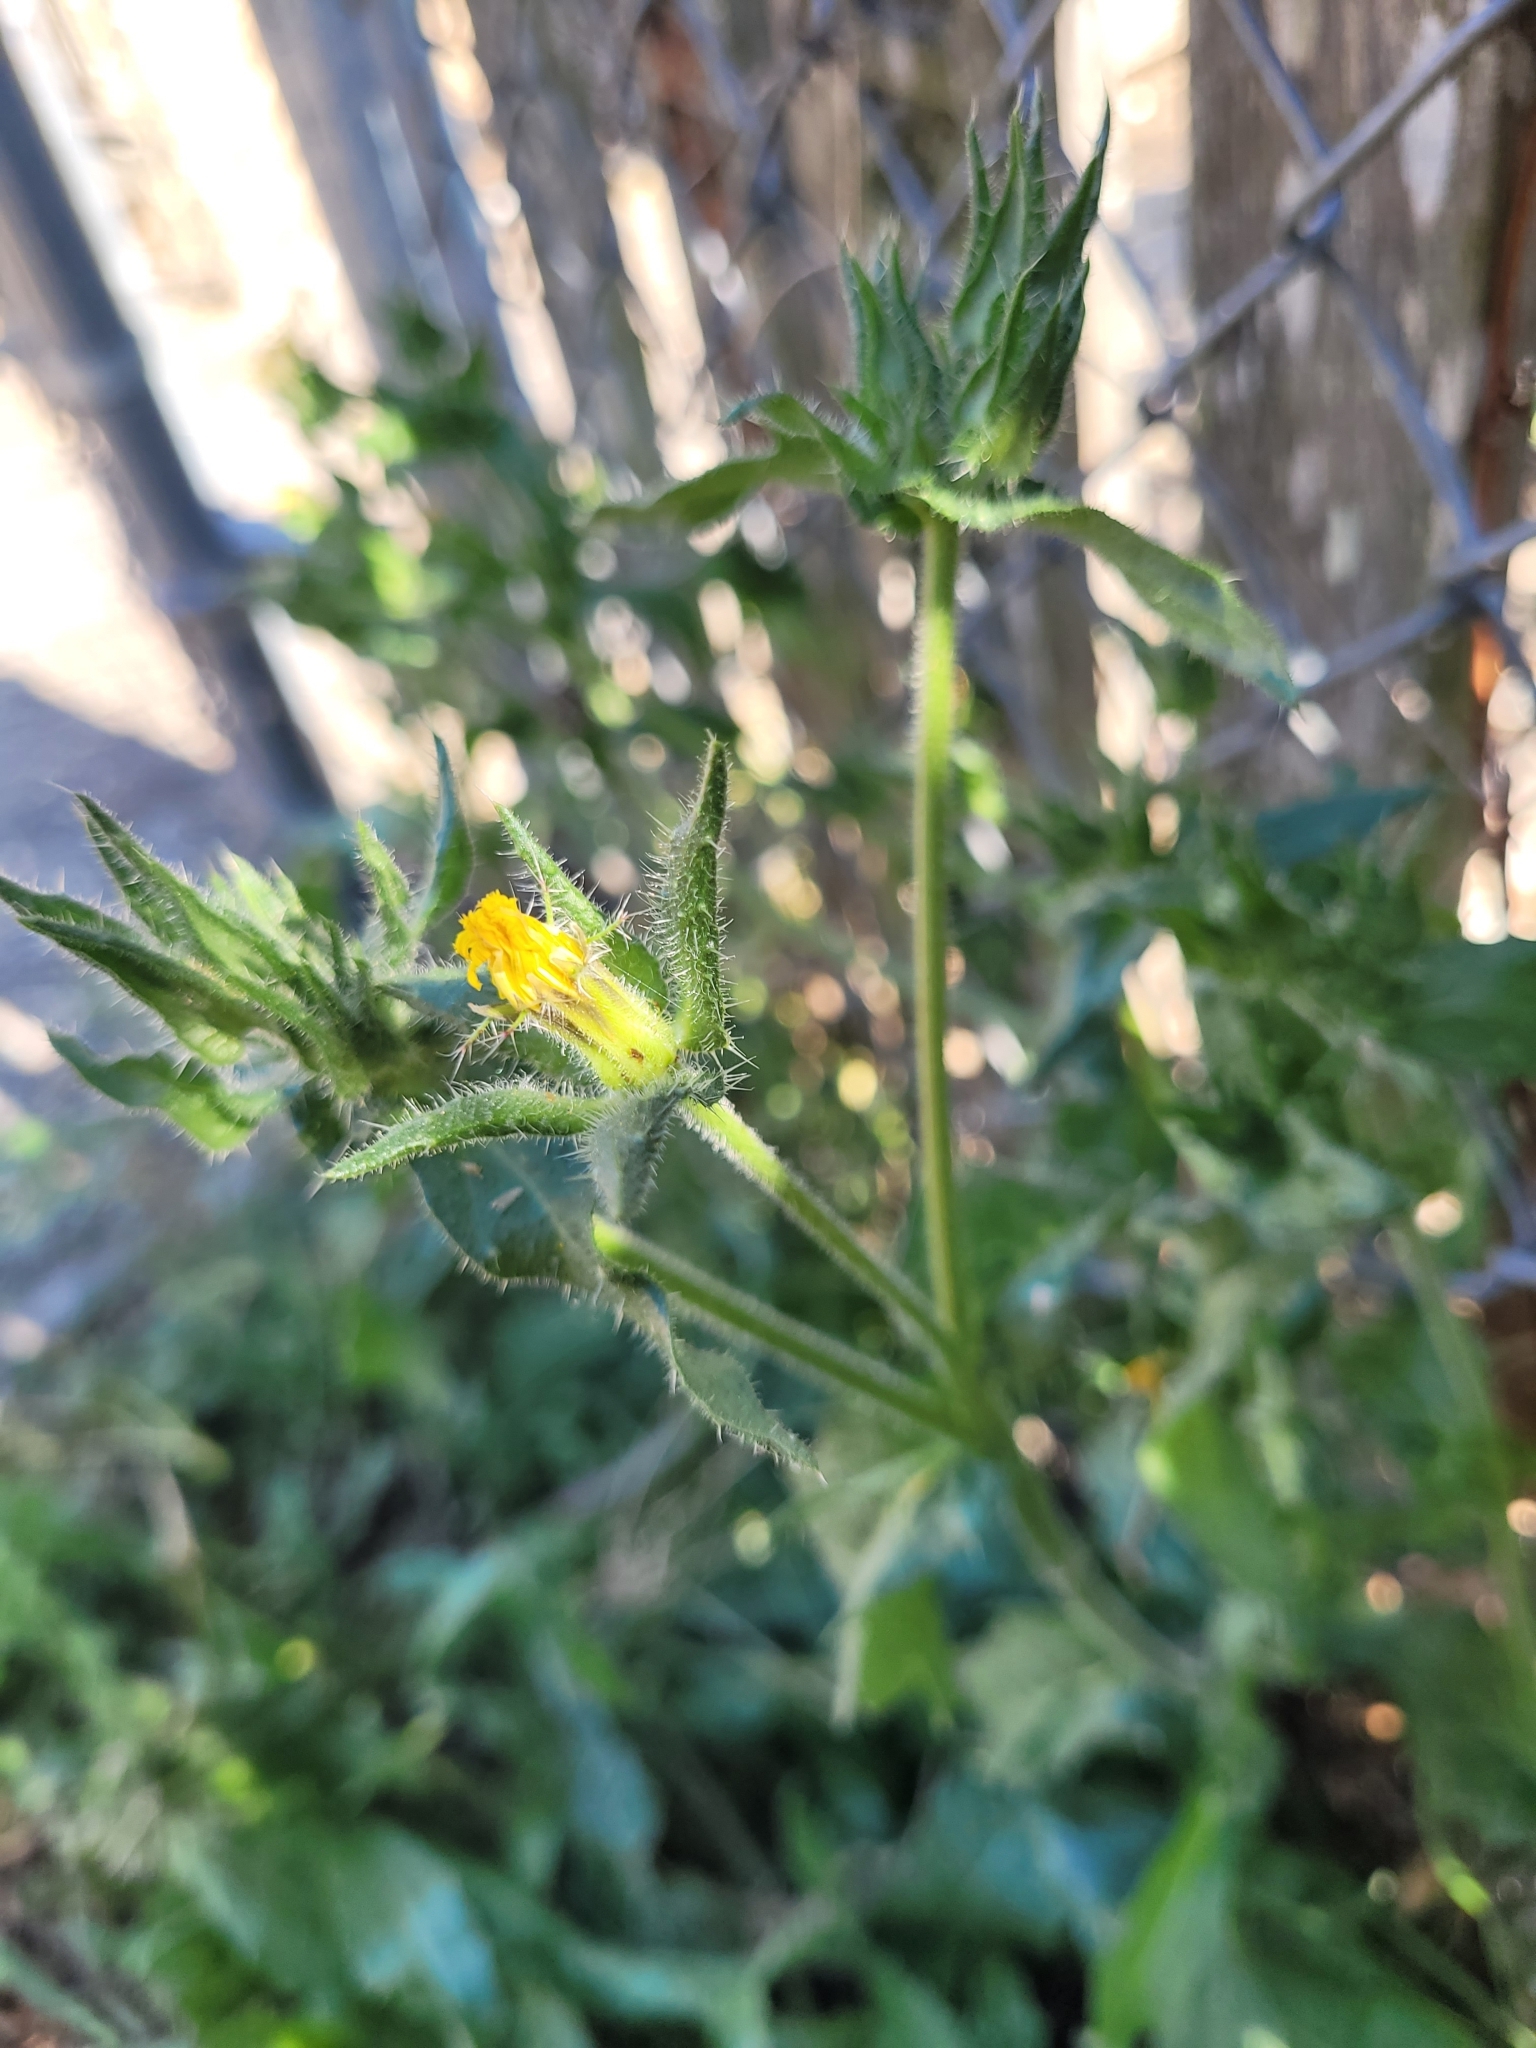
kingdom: Plantae
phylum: Tracheophyta
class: Magnoliopsida
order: Asterales
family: Asteraceae
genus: Helminthotheca
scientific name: Helminthotheca echioides
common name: Ox-tongue
